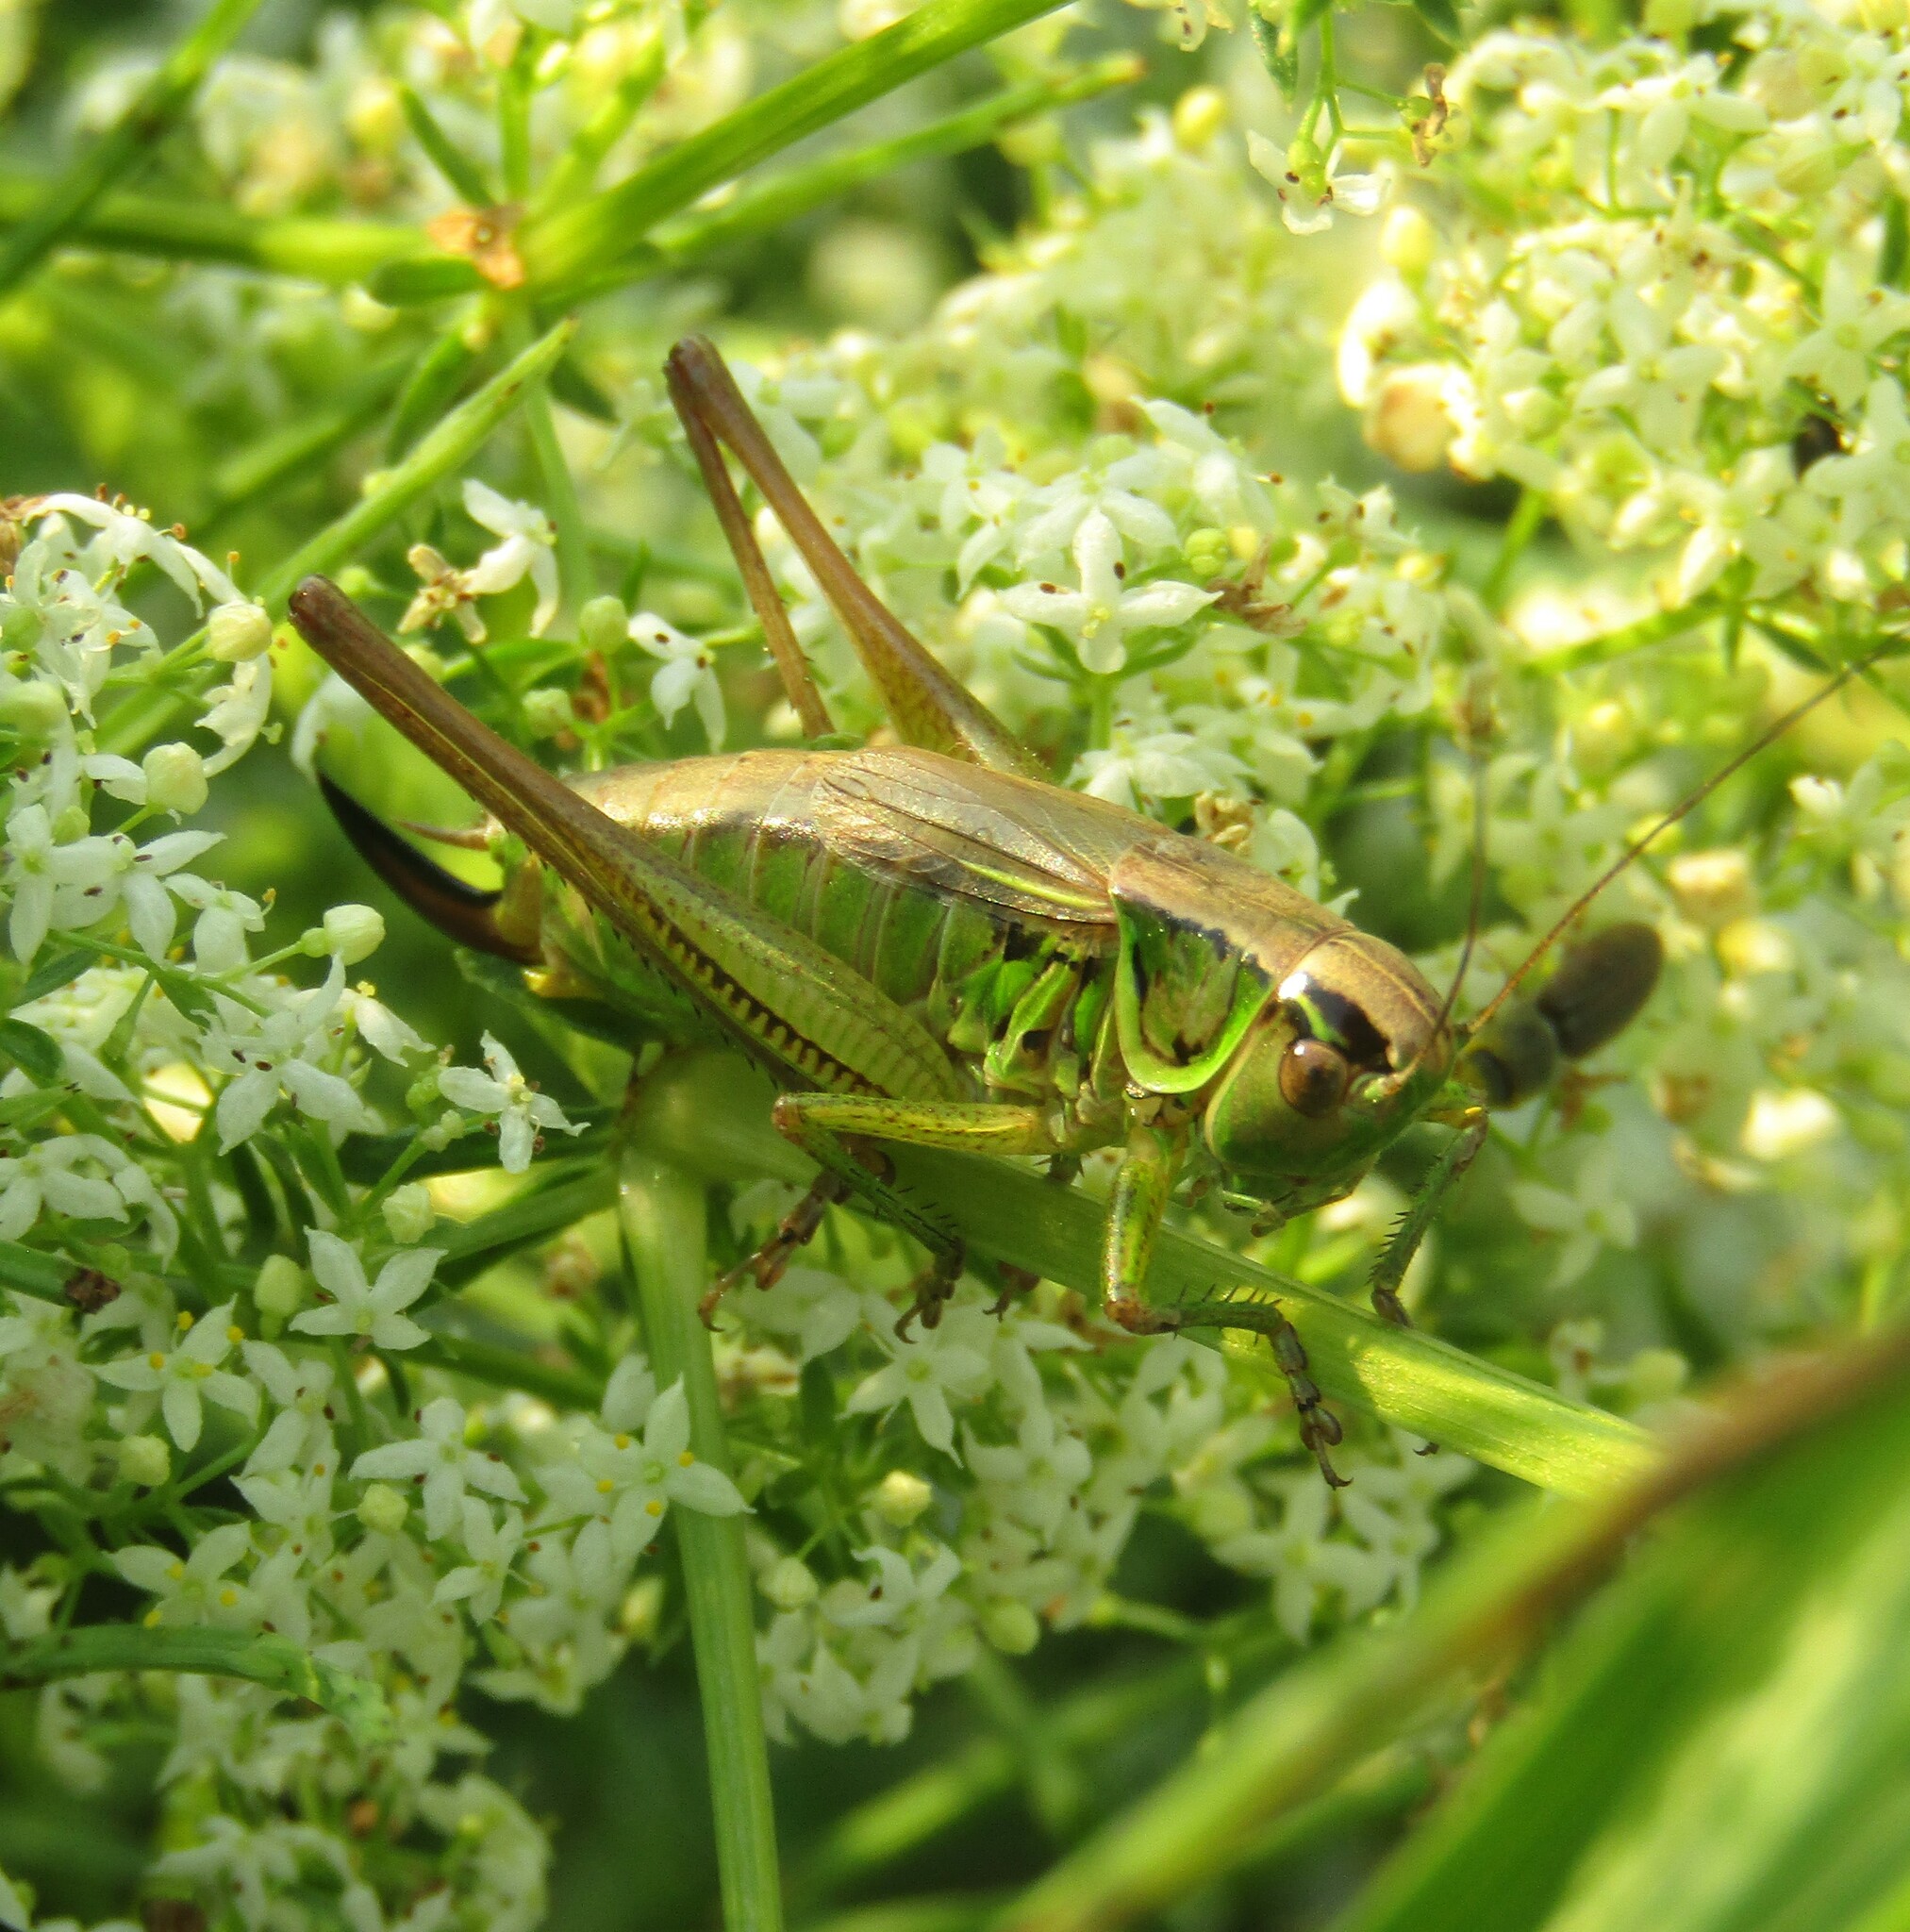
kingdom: Animalia
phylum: Arthropoda
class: Insecta
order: Orthoptera
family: Tettigoniidae
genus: Roeseliana
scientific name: Roeseliana roeselii
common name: Roesel's bush cricket
